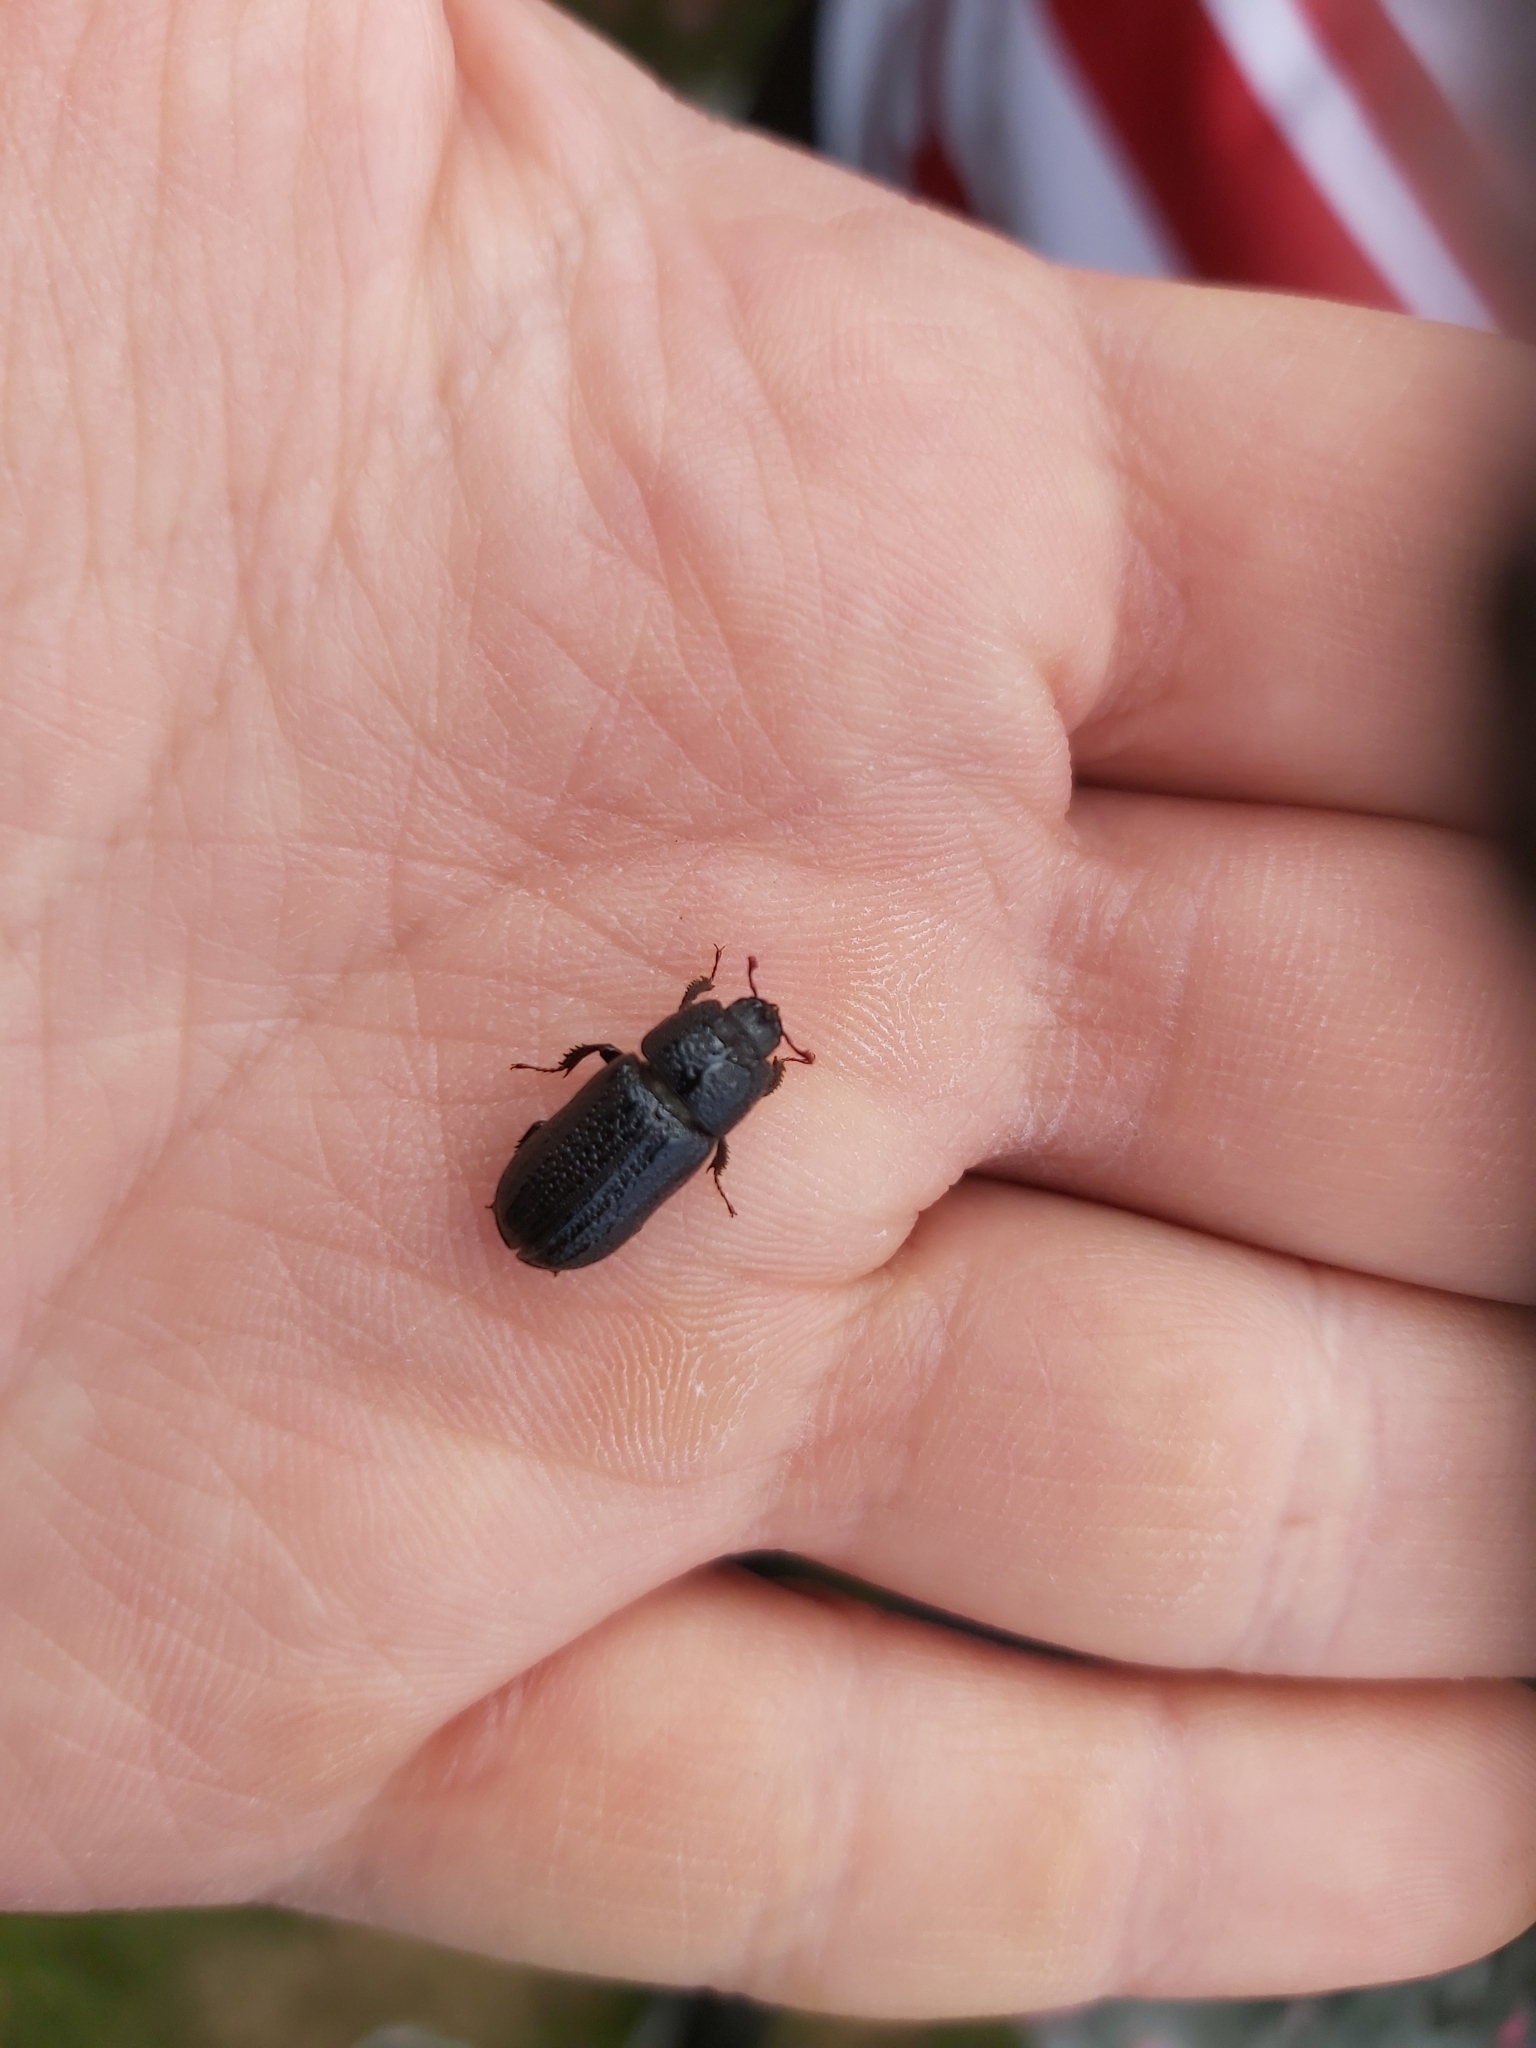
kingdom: Animalia
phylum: Arthropoda
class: Insecta
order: Coleoptera
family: Lucanidae
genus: Sinodendron
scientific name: Sinodendron cylindricum
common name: Rhinoceros beetle
